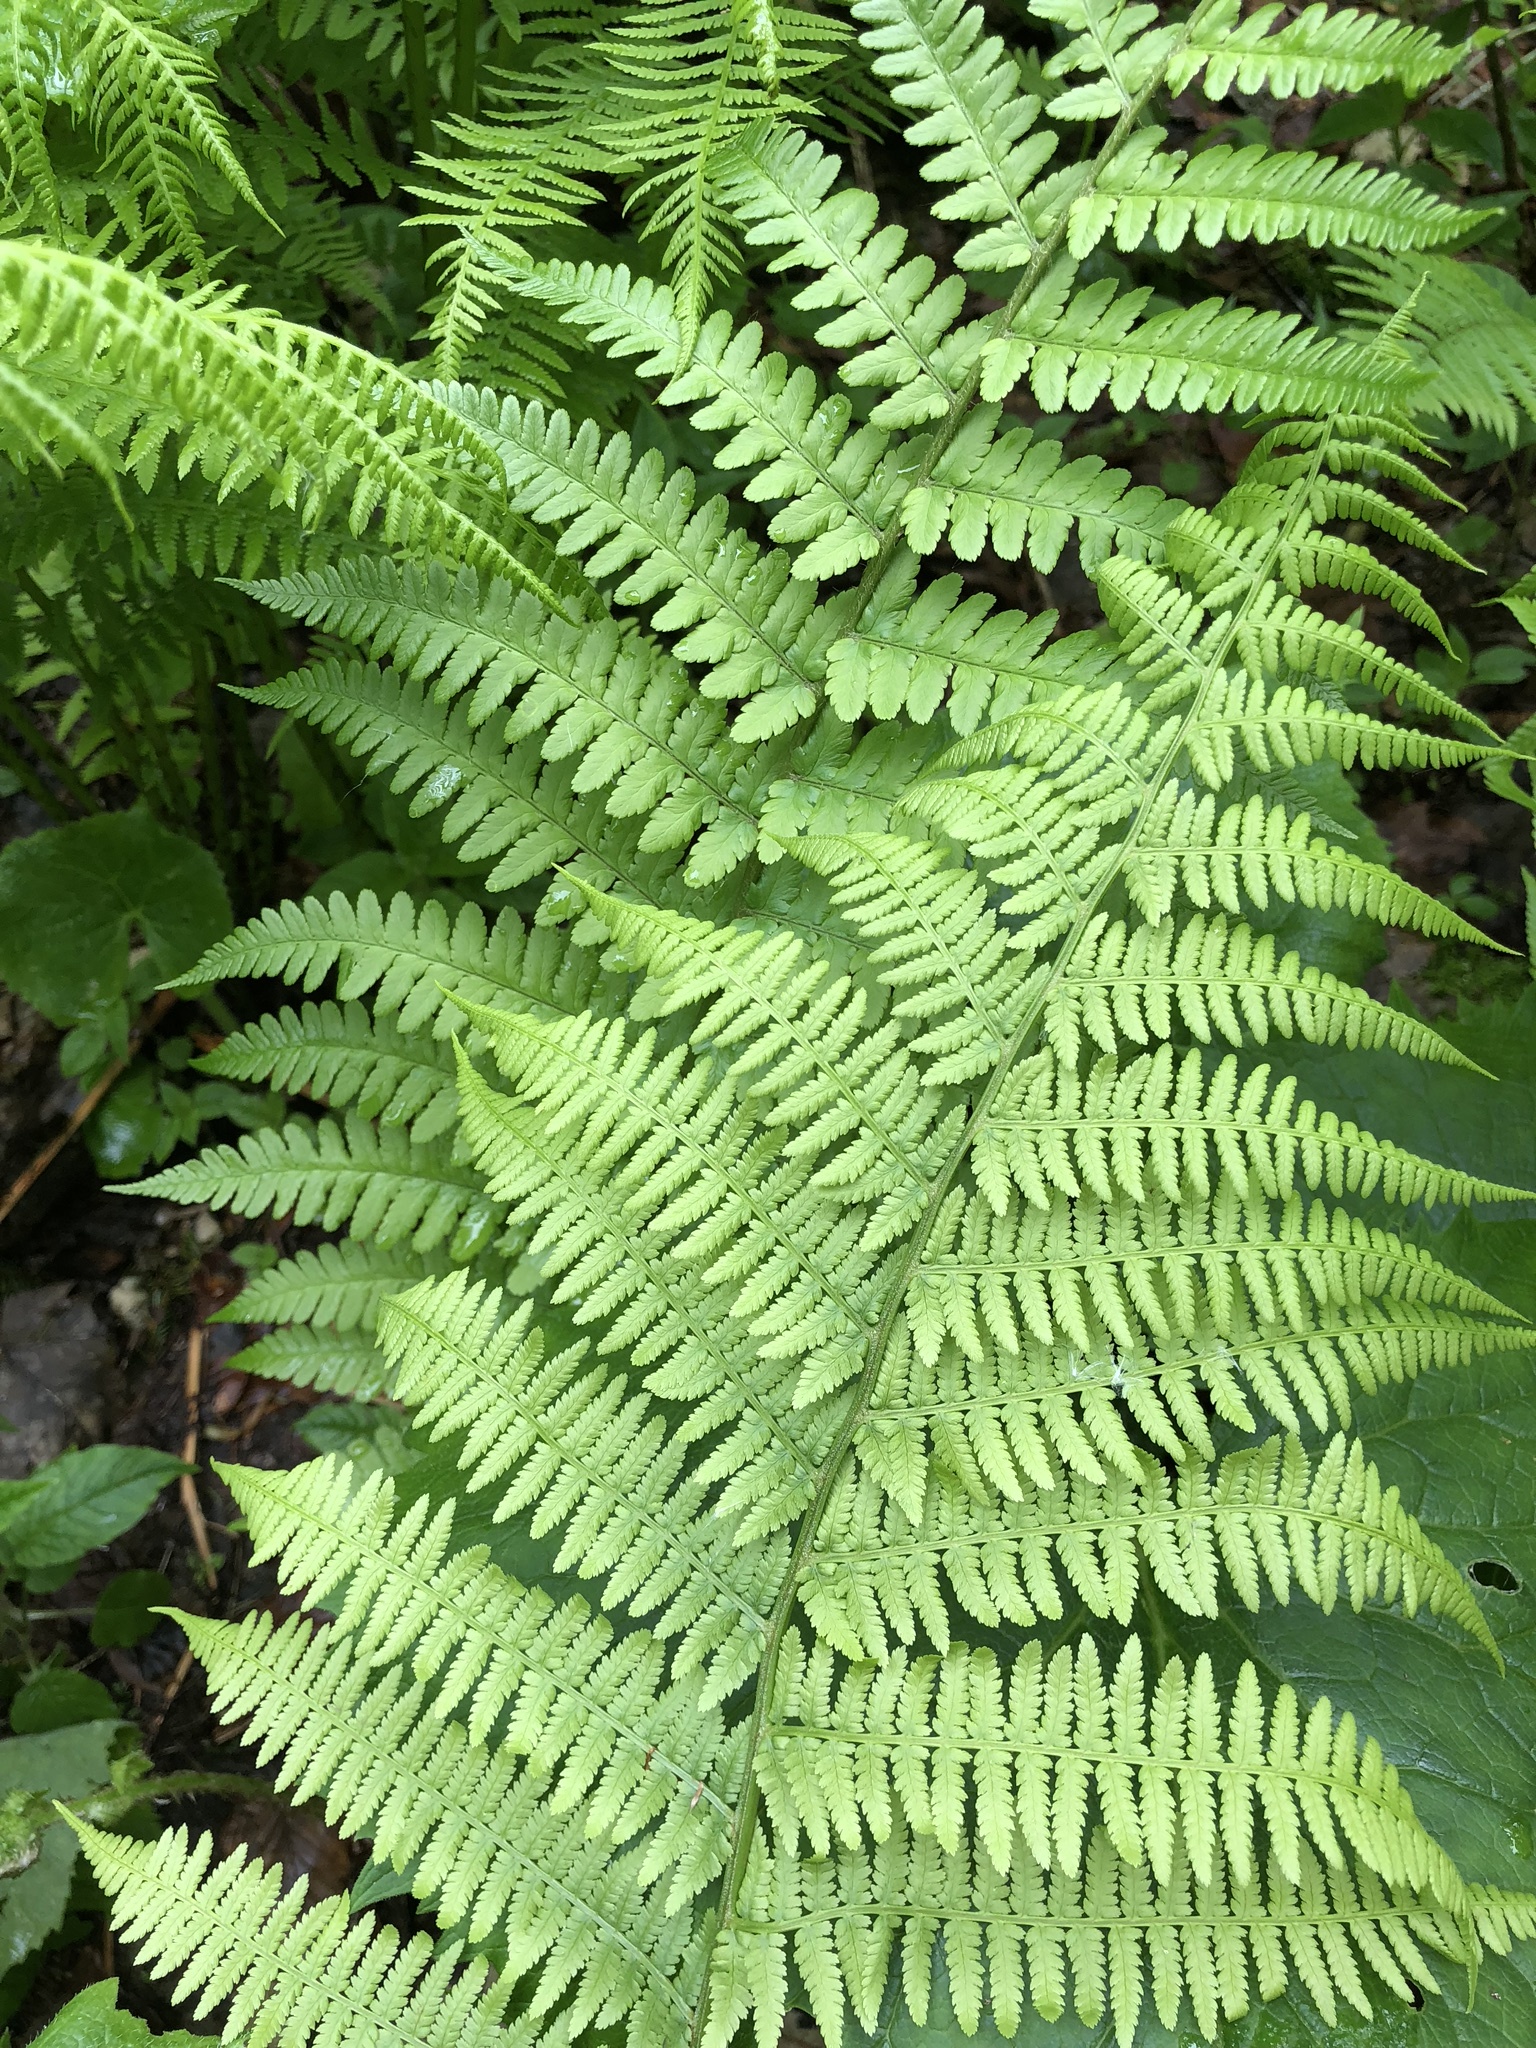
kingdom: Plantae
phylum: Tracheophyta
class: Polypodiopsida
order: Polypodiales
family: Athyriaceae
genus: Athyrium
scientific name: Athyrium filix-femina
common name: Lady fern
